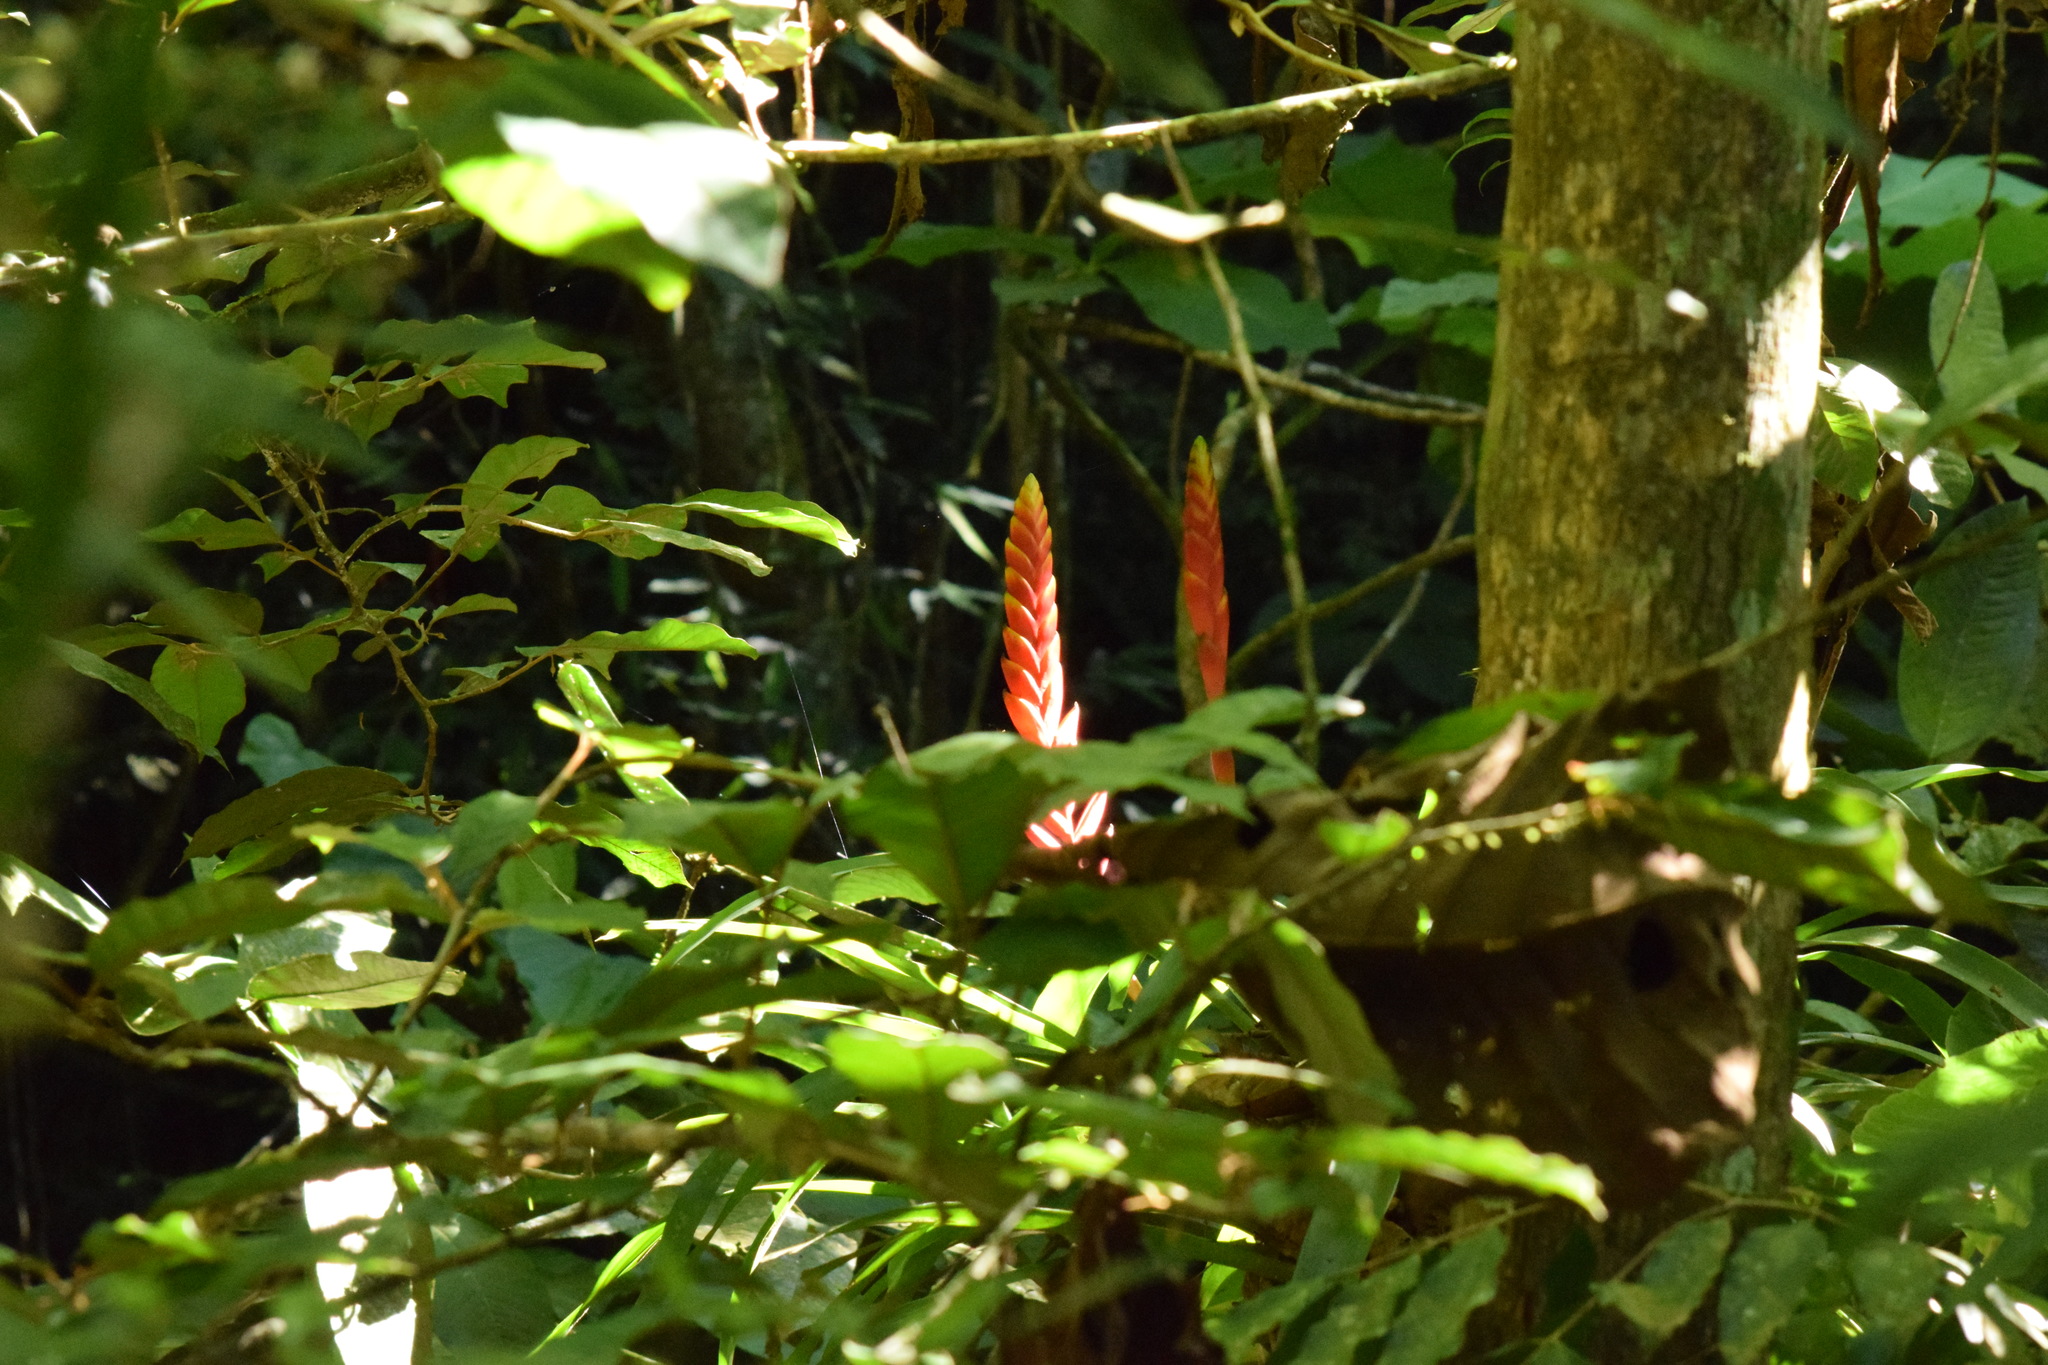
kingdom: Plantae
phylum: Tracheophyta
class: Liliopsida
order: Poales
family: Bromeliaceae
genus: Vriesea
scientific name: Vriesea ensiformis
